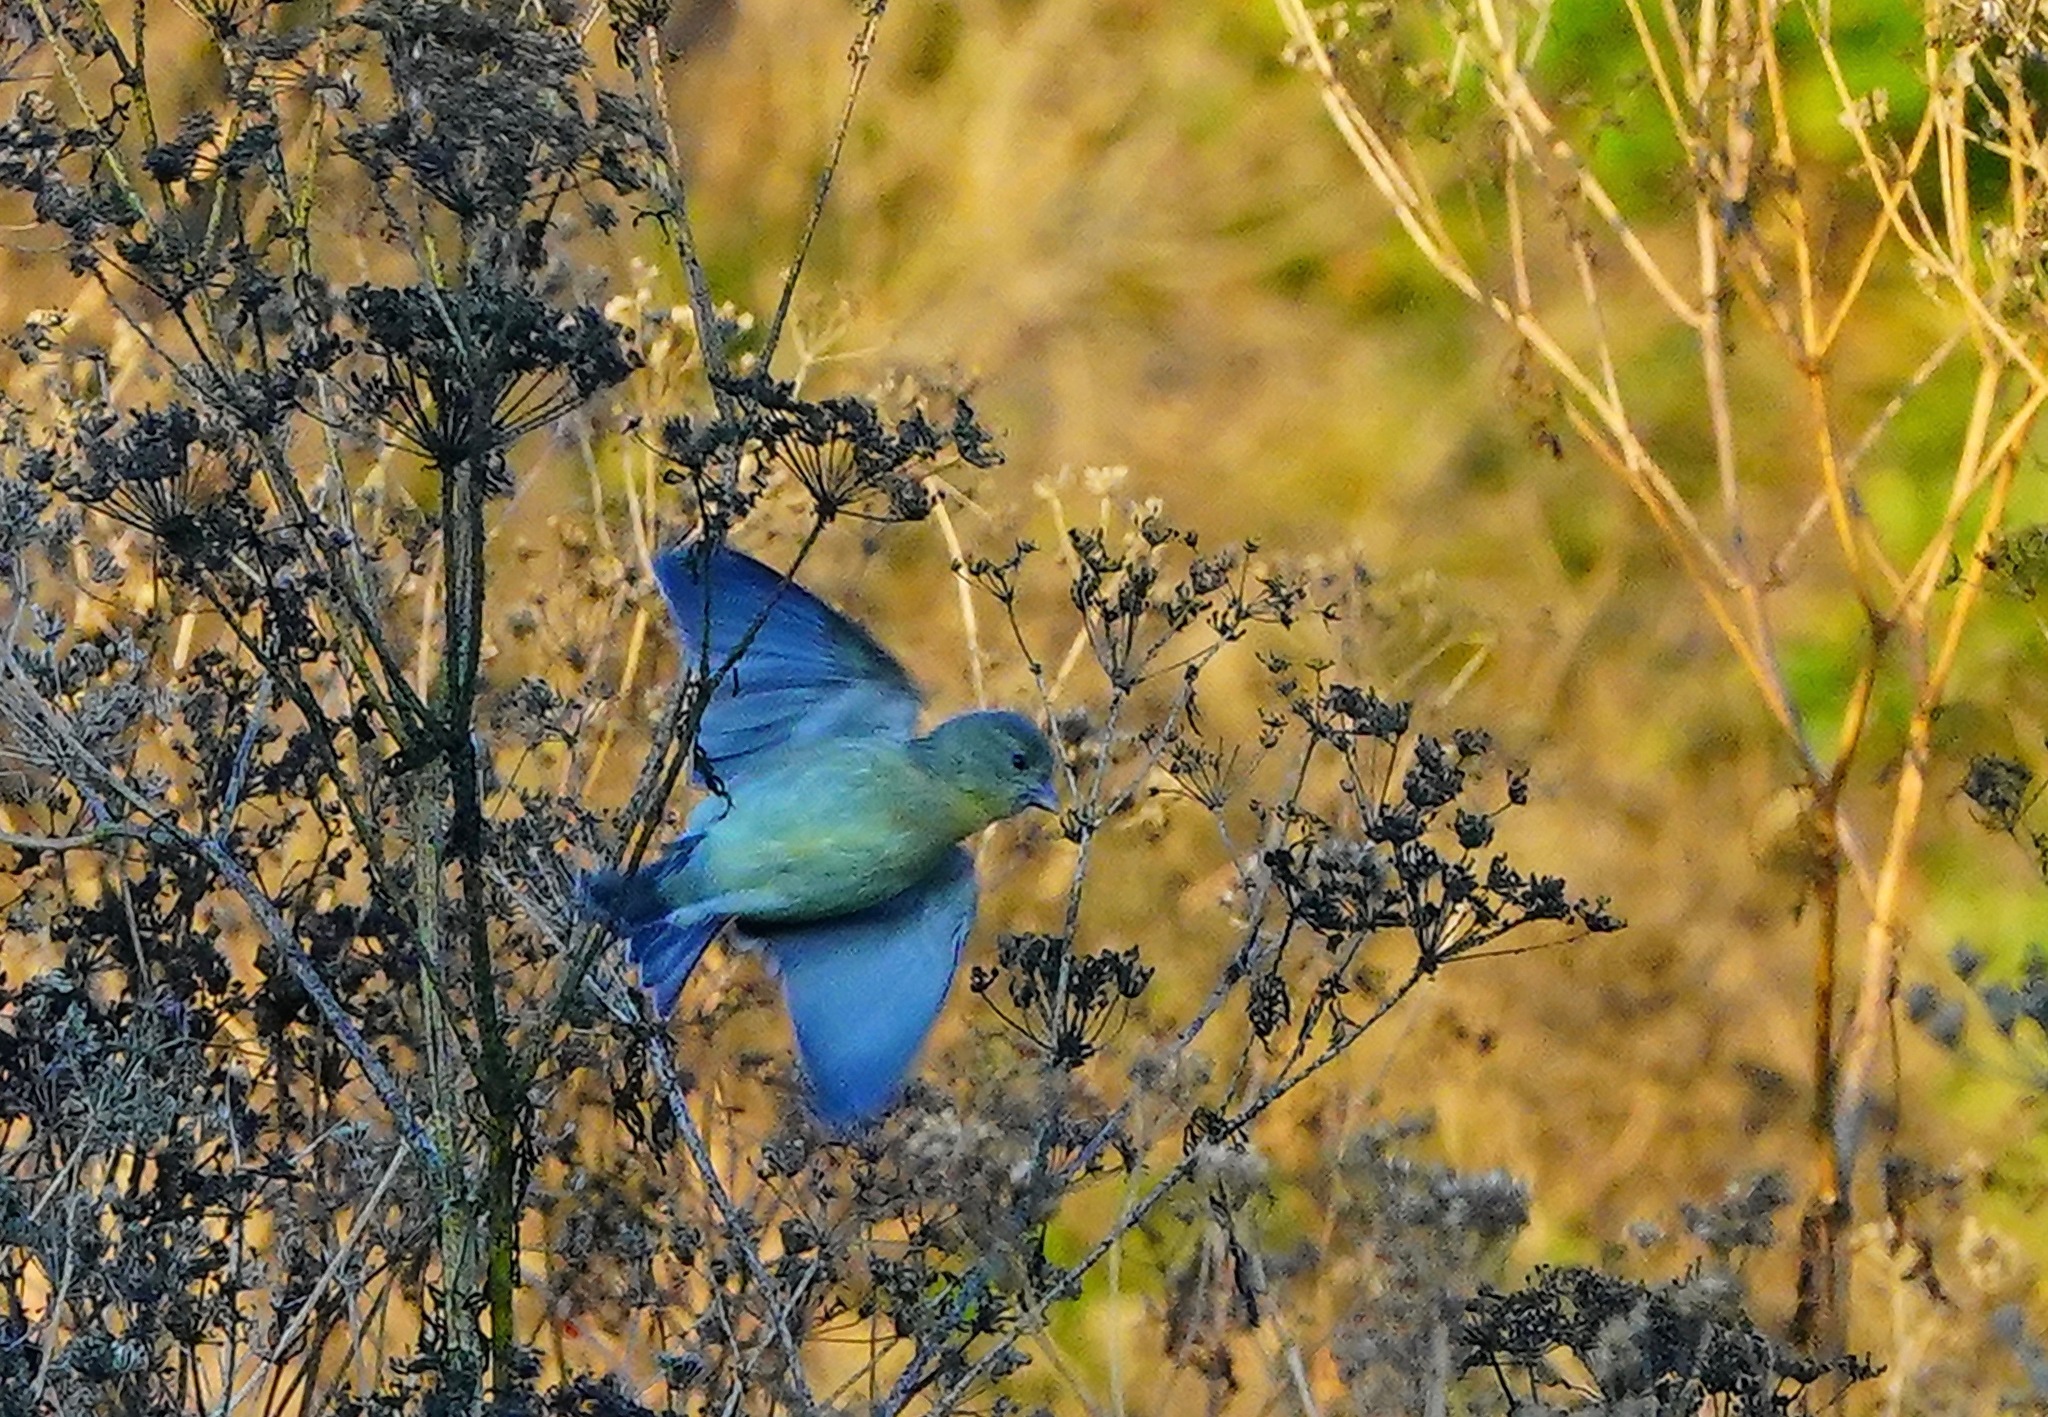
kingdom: Animalia
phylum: Chordata
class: Aves
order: Passeriformes
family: Fringillidae
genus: Spinus
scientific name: Spinus psaltria
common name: Lesser goldfinch
